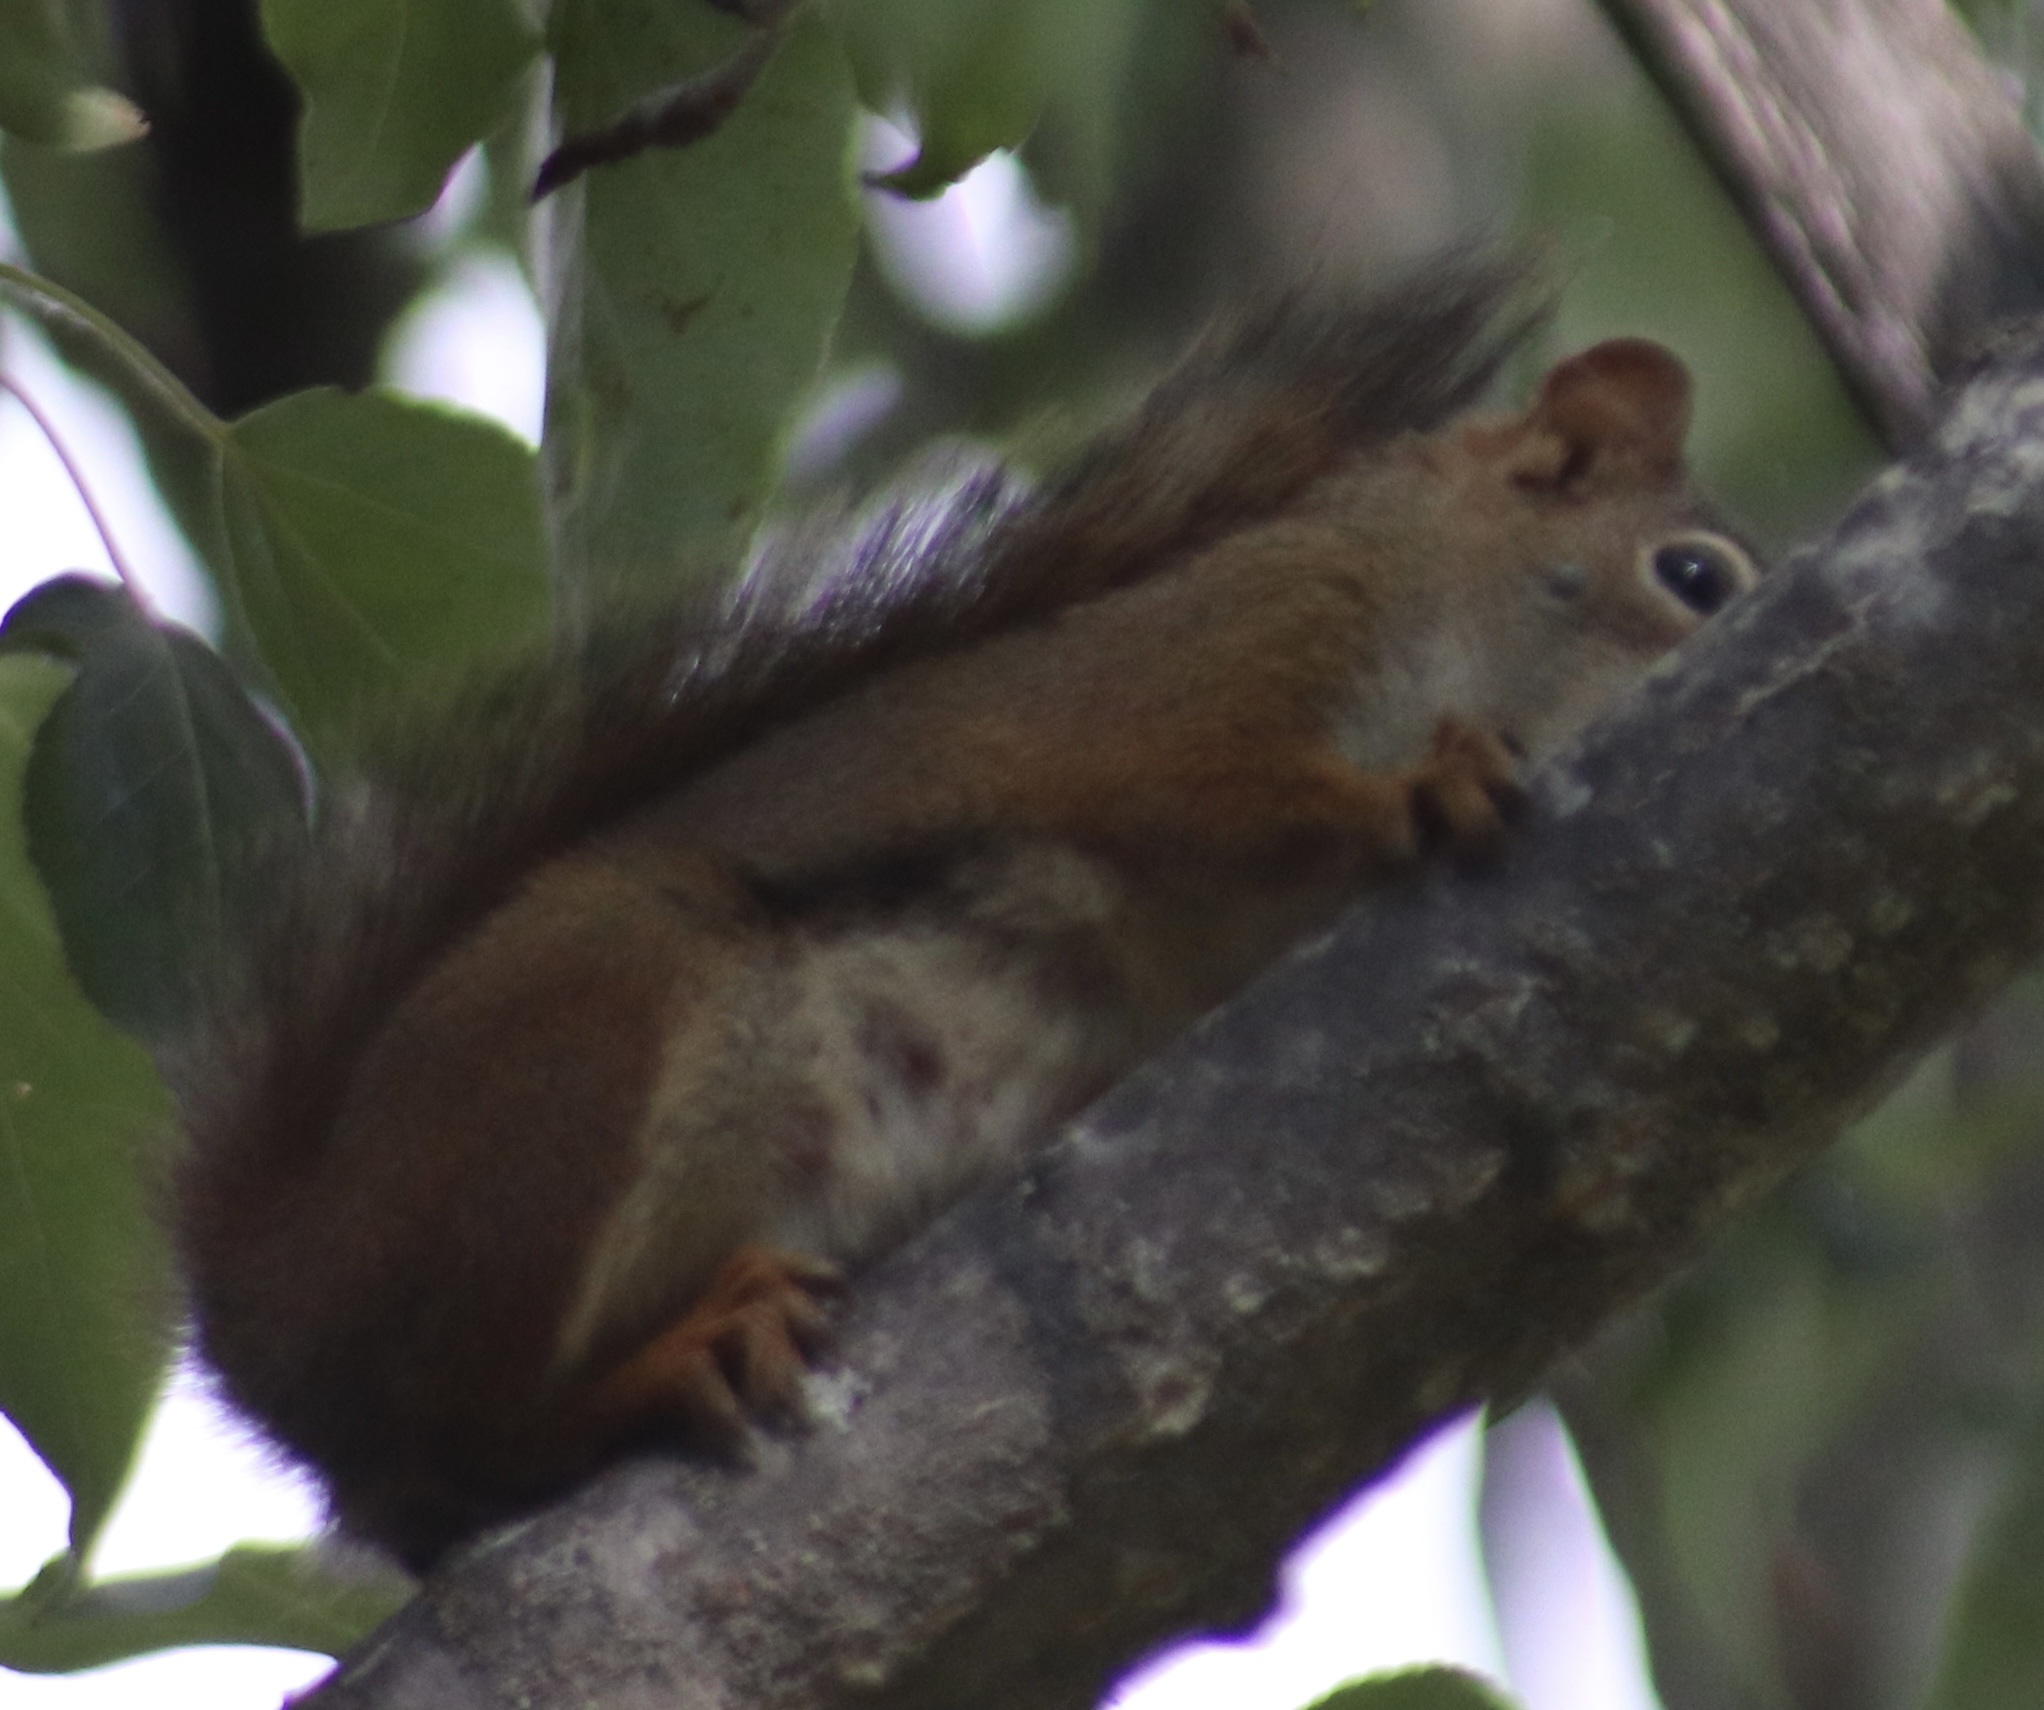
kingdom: Animalia
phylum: Chordata
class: Mammalia
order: Rodentia
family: Sciuridae
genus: Tamiasciurus
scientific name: Tamiasciurus hudsonicus
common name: Red squirrel
